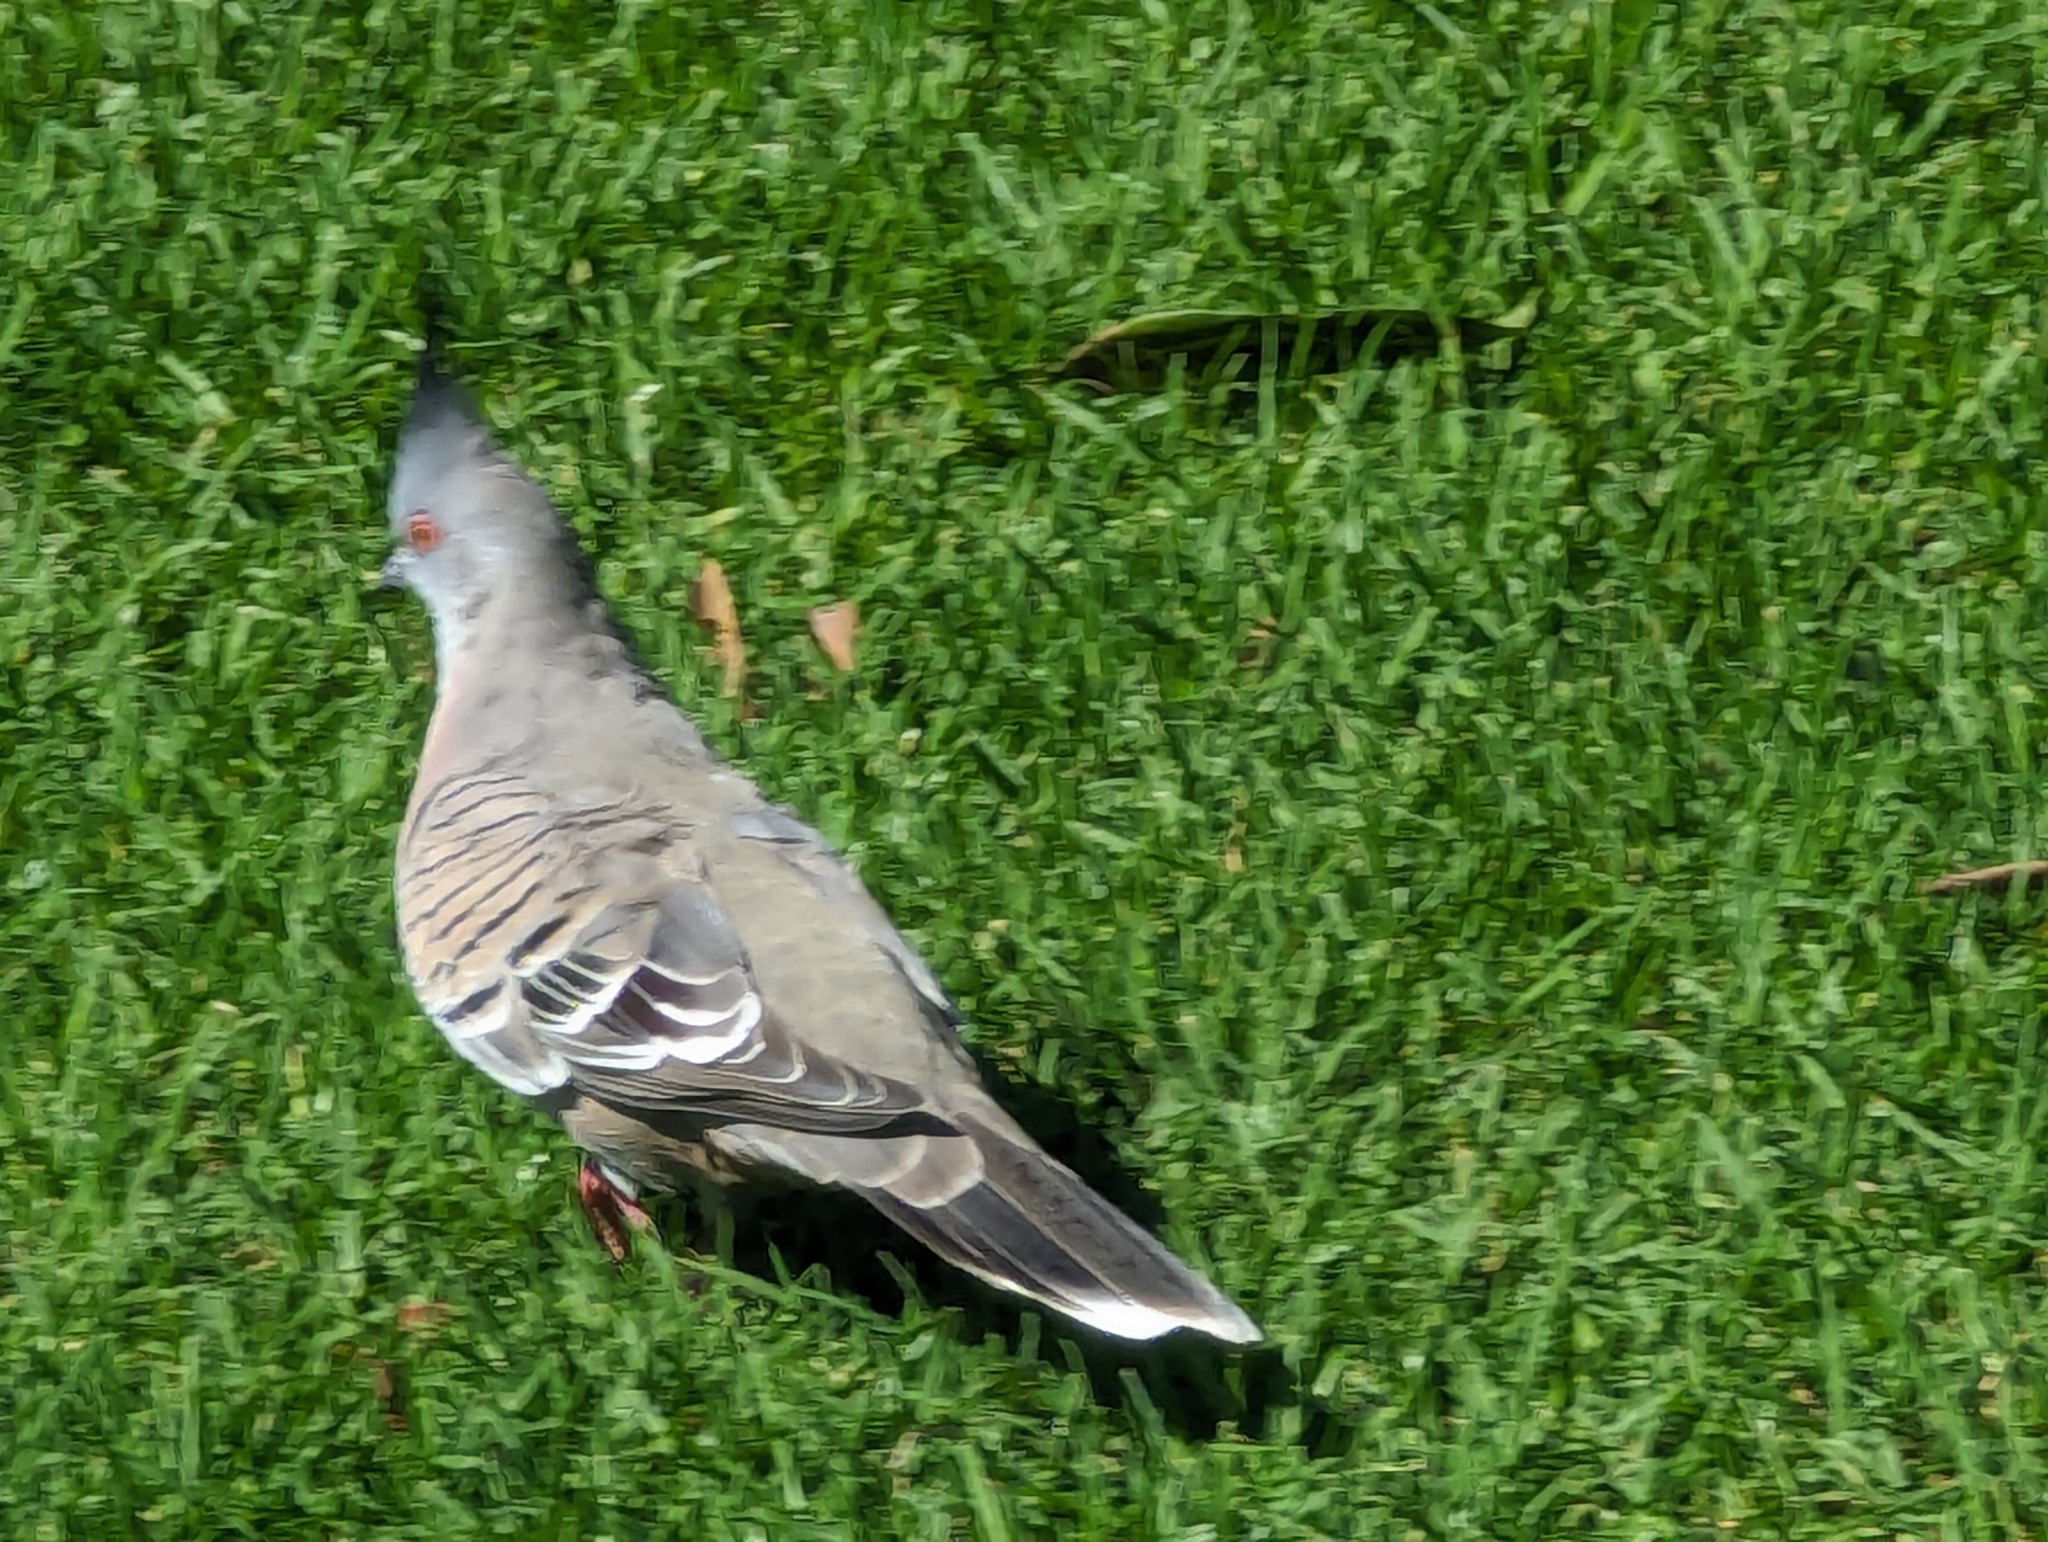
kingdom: Animalia
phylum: Chordata
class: Aves
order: Columbiformes
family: Columbidae
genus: Ocyphaps
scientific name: Ocyphaps lophotes
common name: Crested pigeon
